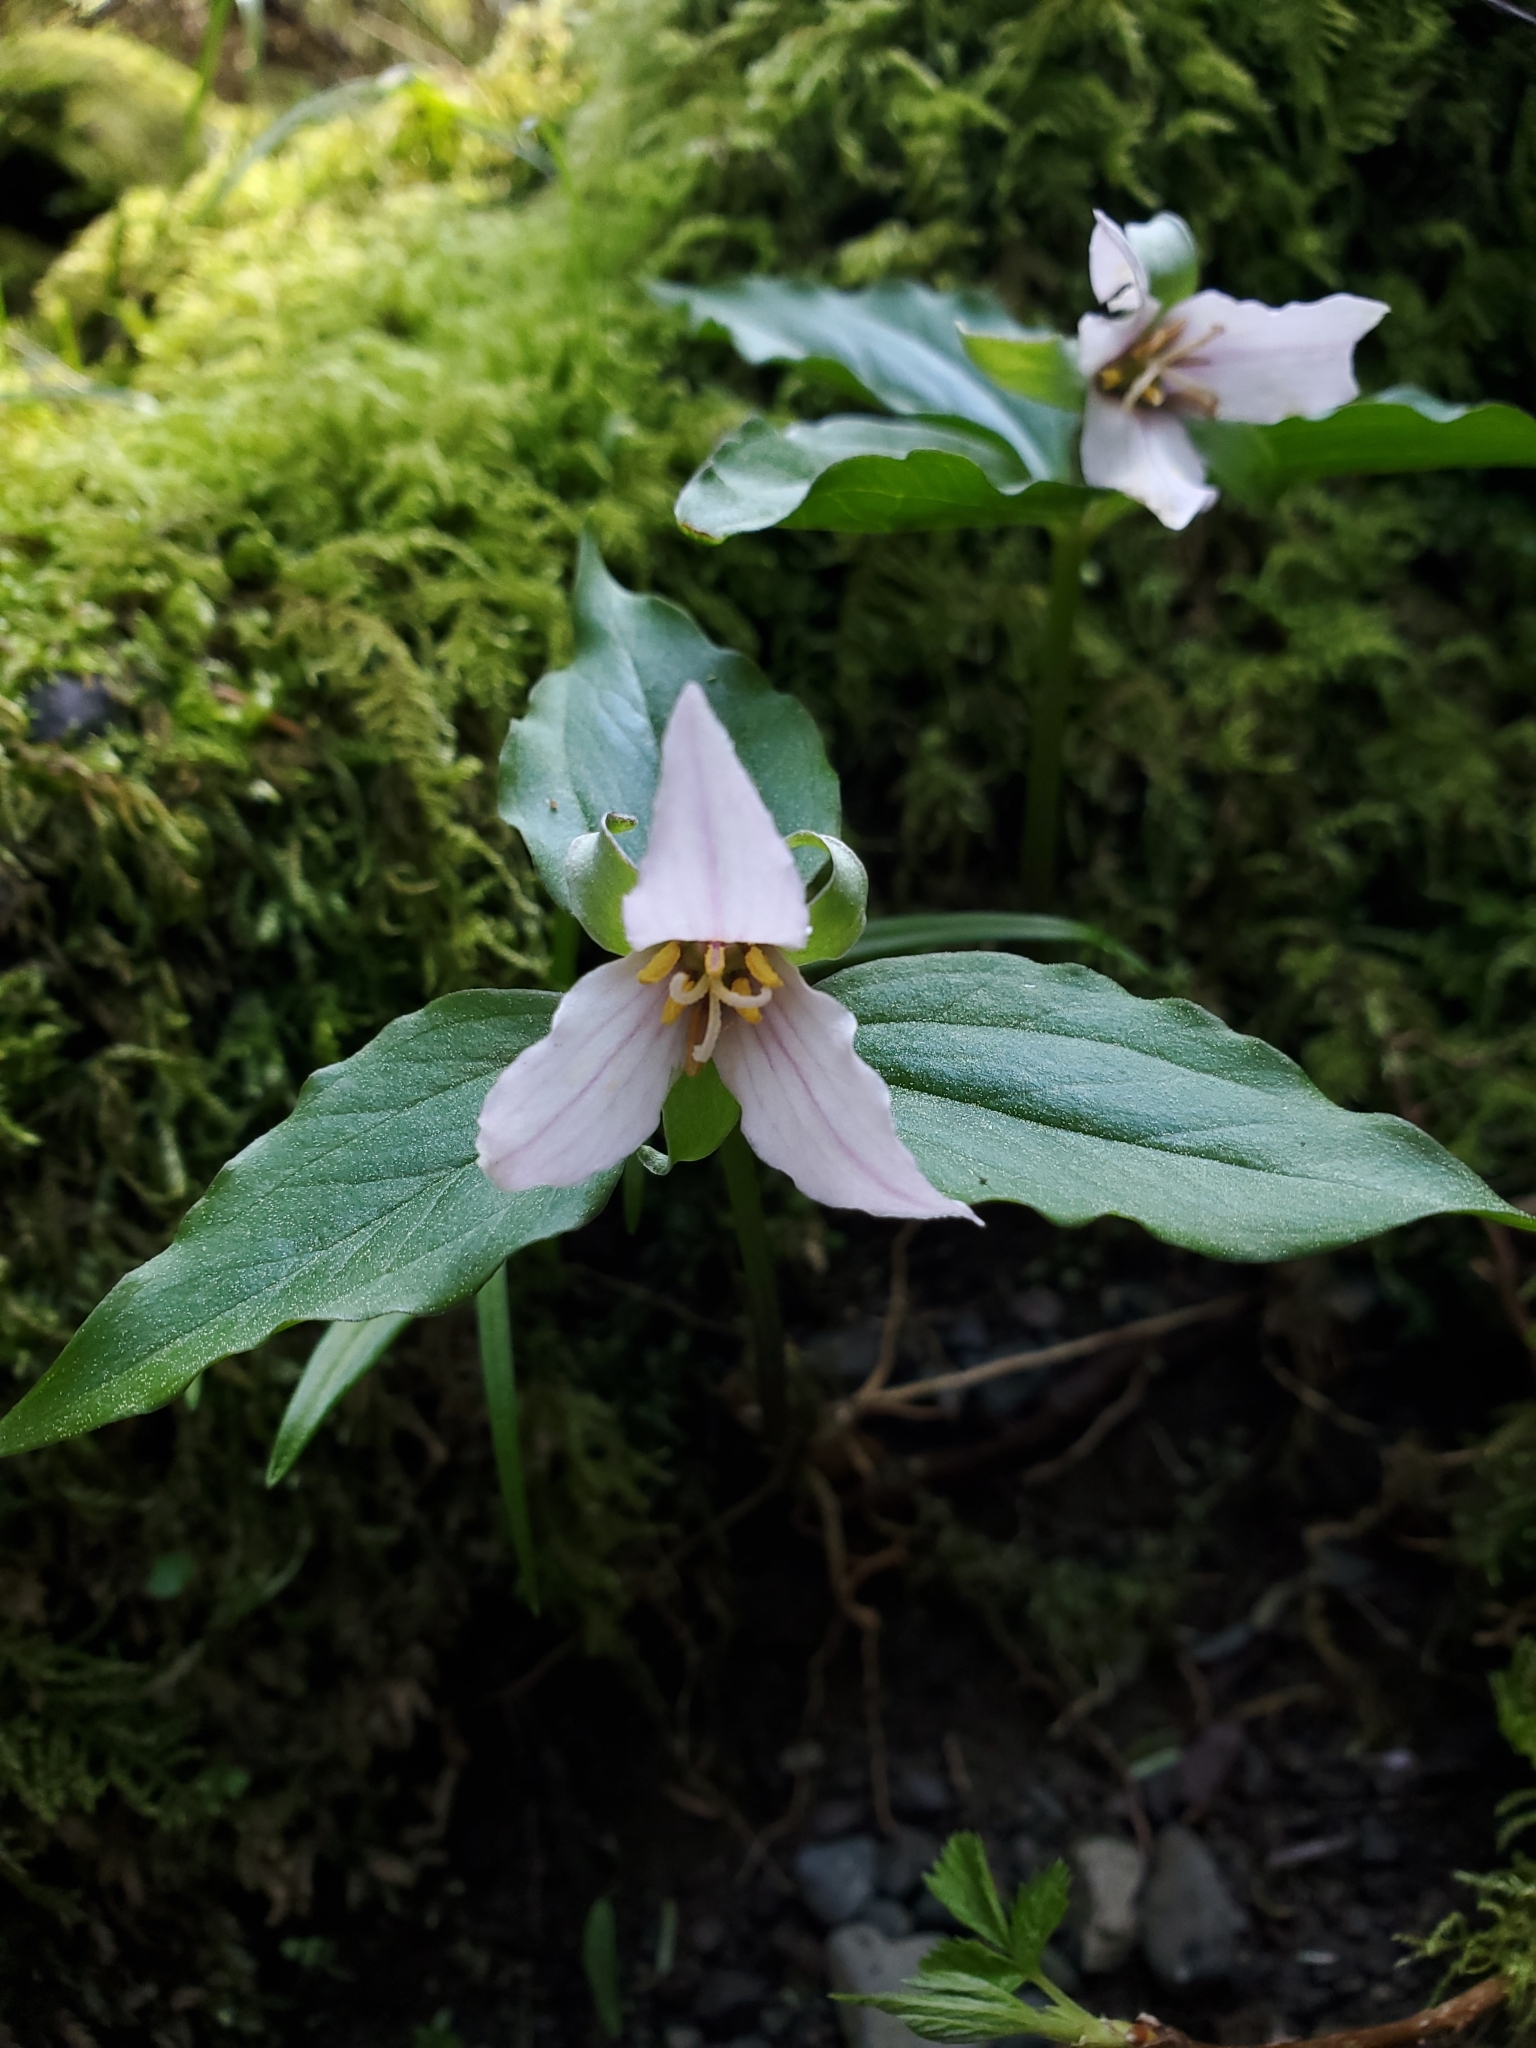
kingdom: Plantae
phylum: Tracheophyta
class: Liliopsida
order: Liliales
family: Melanthiaceae
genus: Trillium
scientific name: Trillium hibbersonii
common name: Hibberson's trillium
